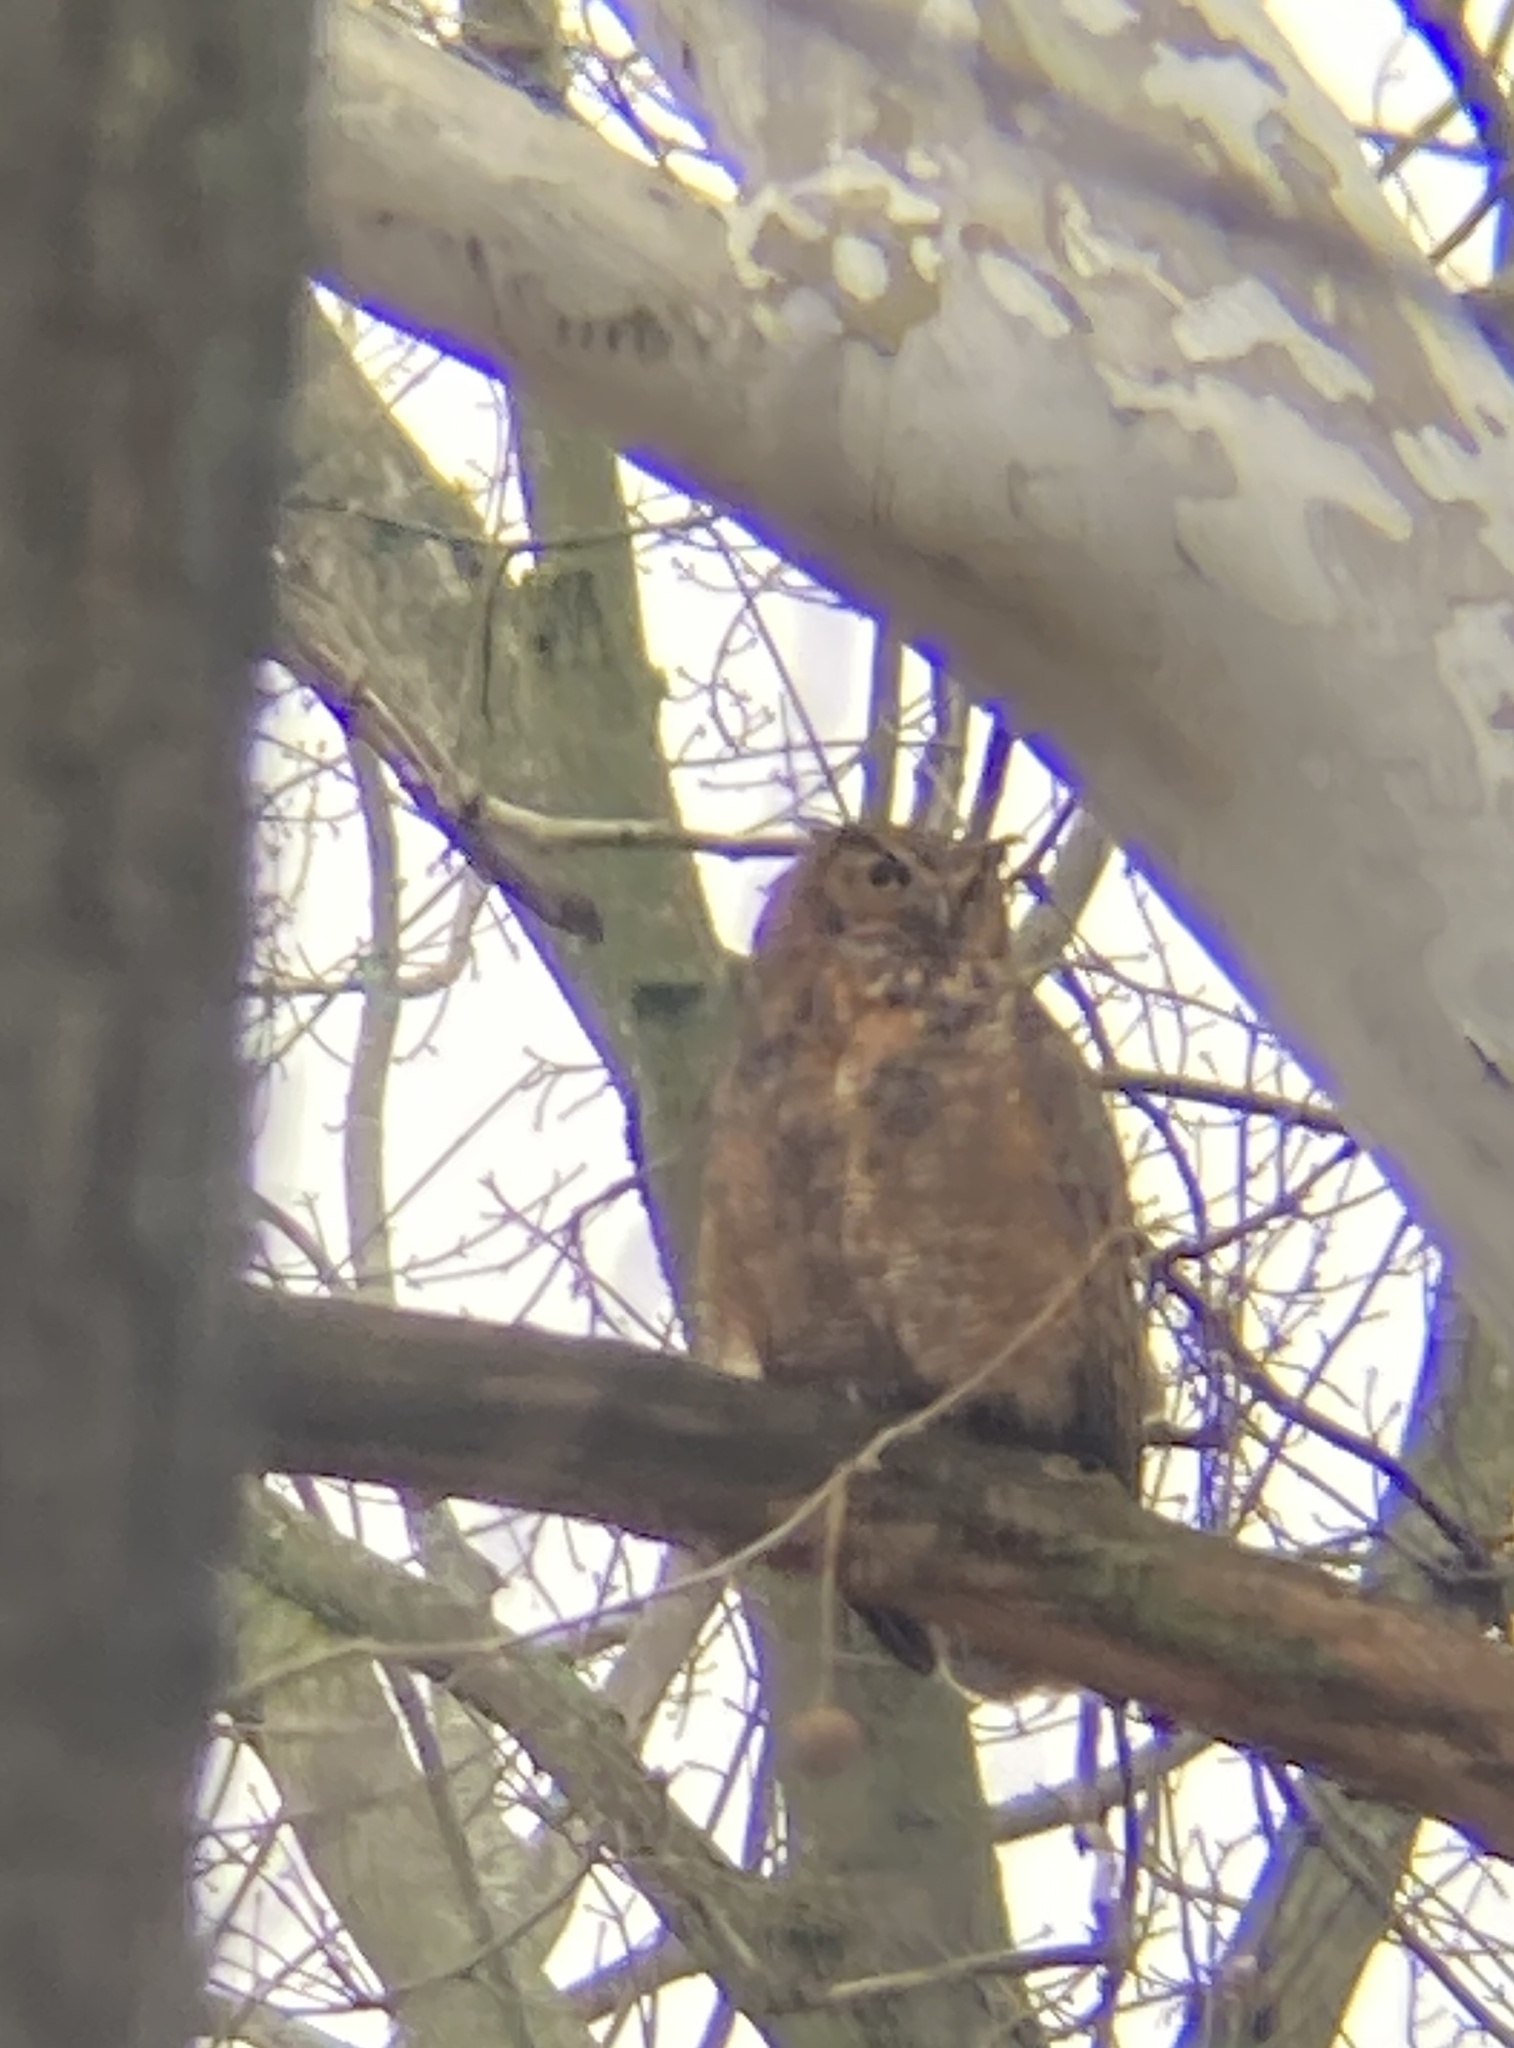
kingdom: Animalia
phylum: Chordata
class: Aves
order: Strigiformes
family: Strigidae
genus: Bubo
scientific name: Bubo virginianus
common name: Great horned owl
